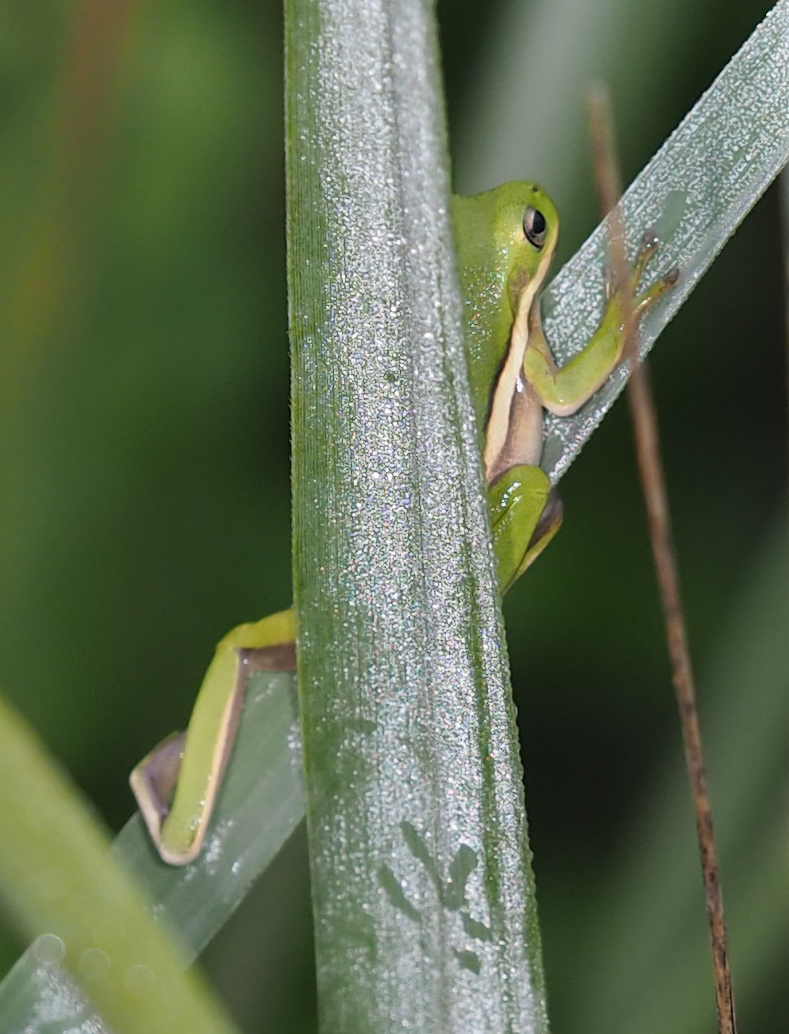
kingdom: Animalia
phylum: Chordata
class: Amphibia
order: Anura
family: Hylidae
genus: Dryophytes
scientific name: Dryophytes cinereus
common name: Green treefrog
